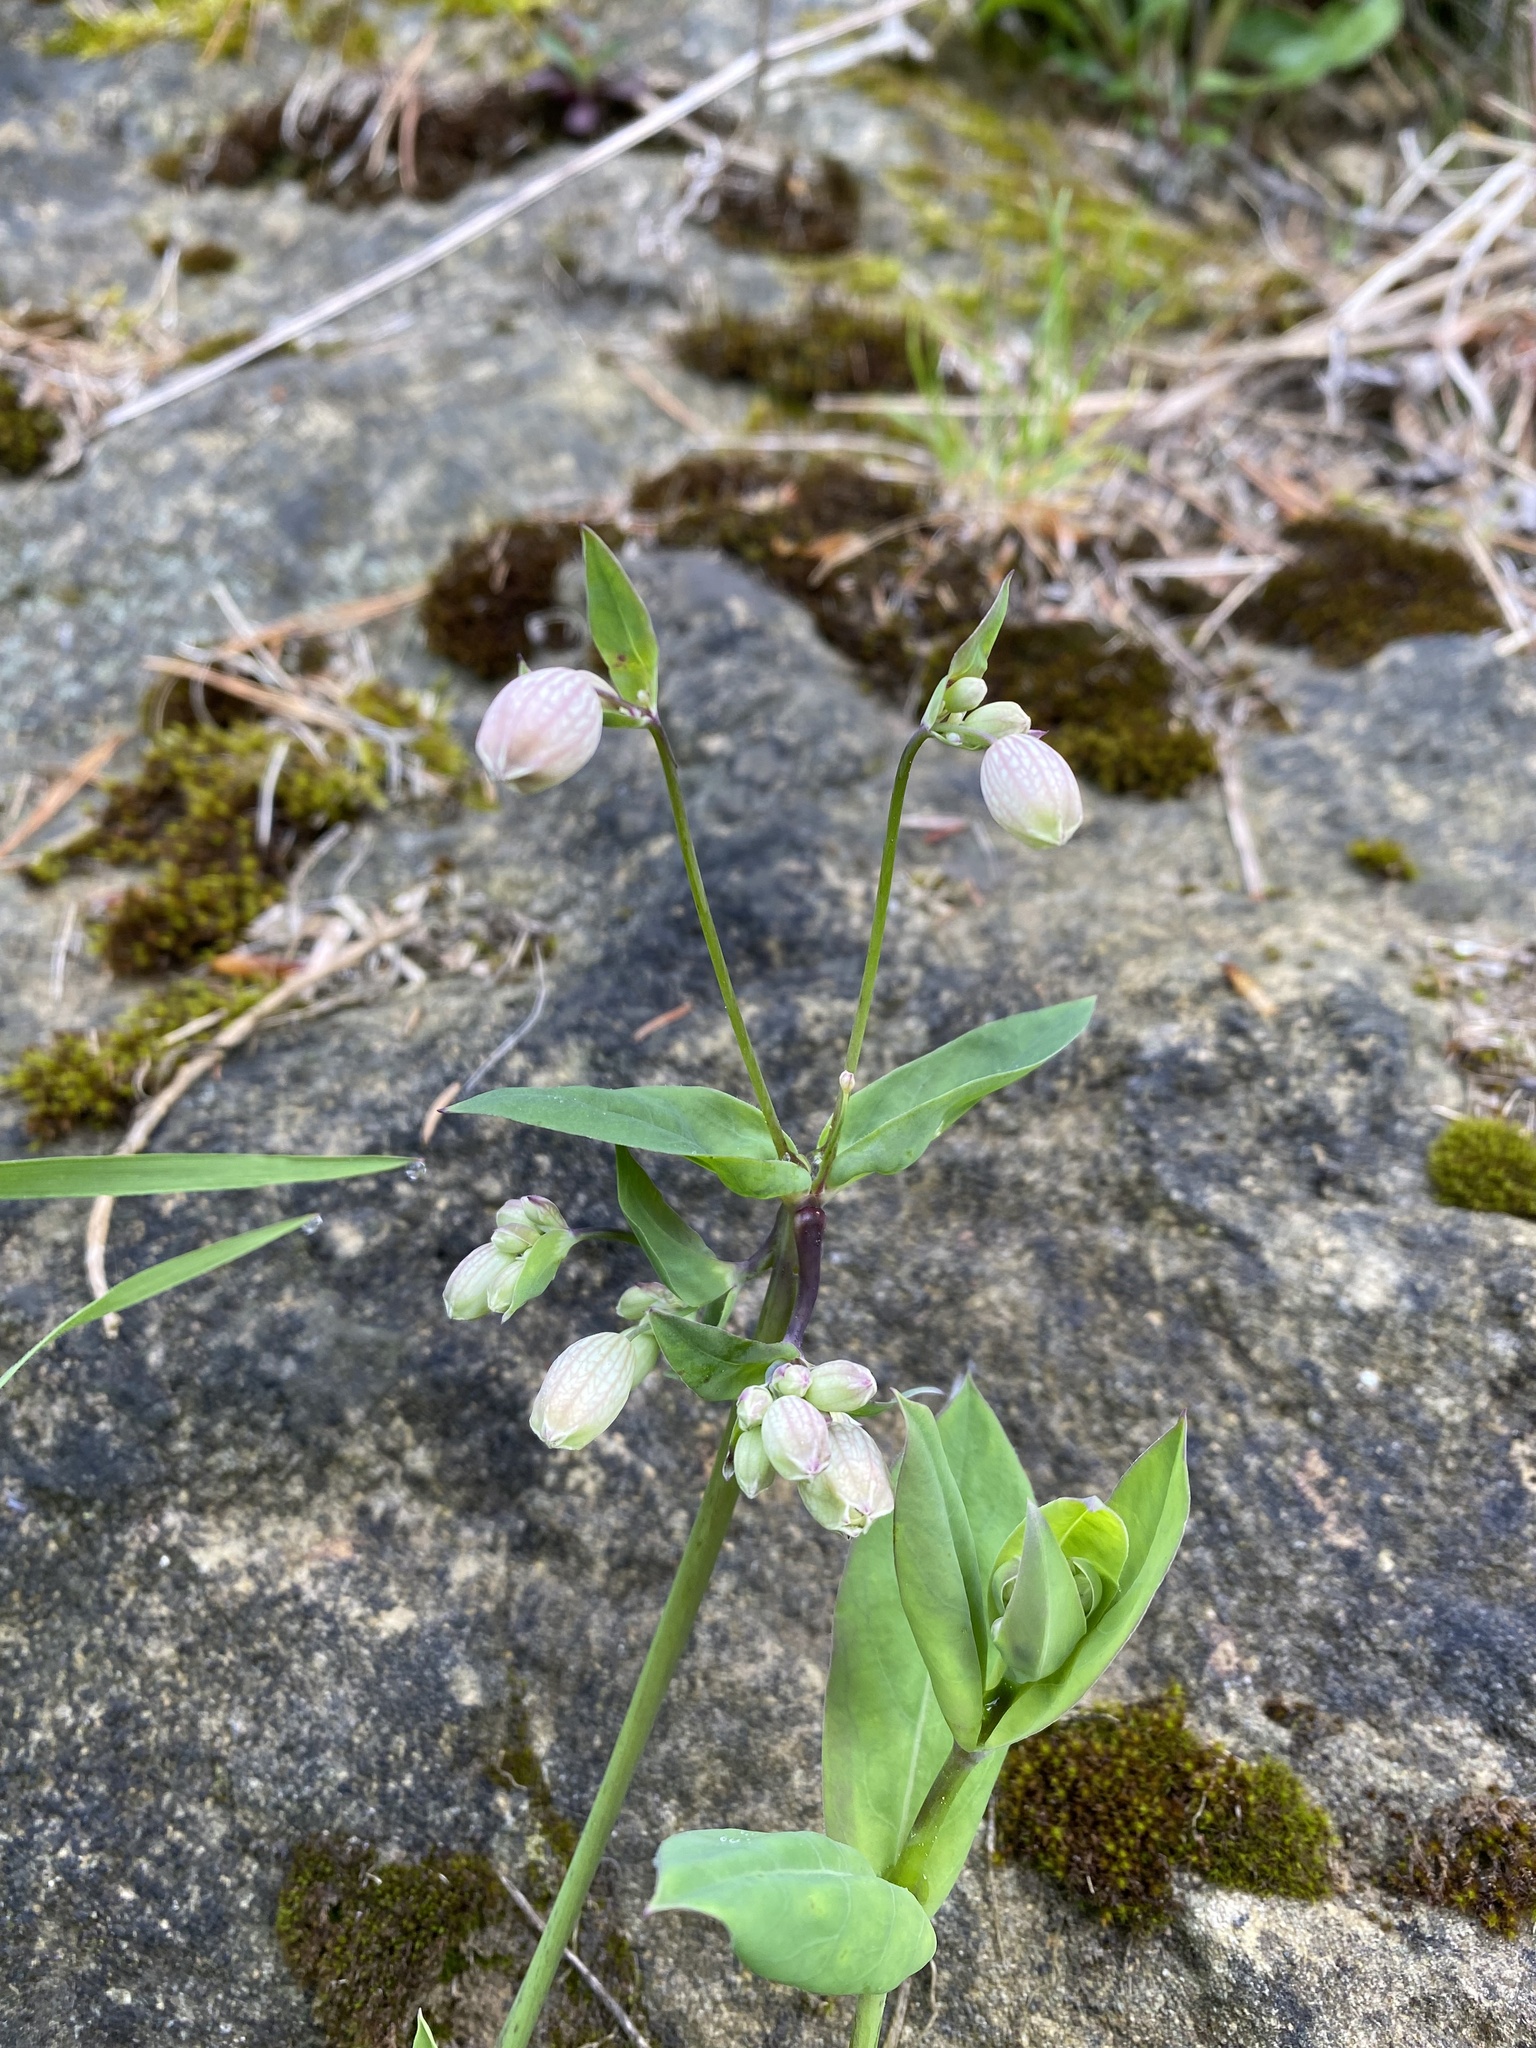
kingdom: Plantae
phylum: Tracheophyta
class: Magnoliopsida
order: Caryophyllales
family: Caryophyllaceae
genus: Silene
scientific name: Silene vulgaris
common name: Bladder campion
